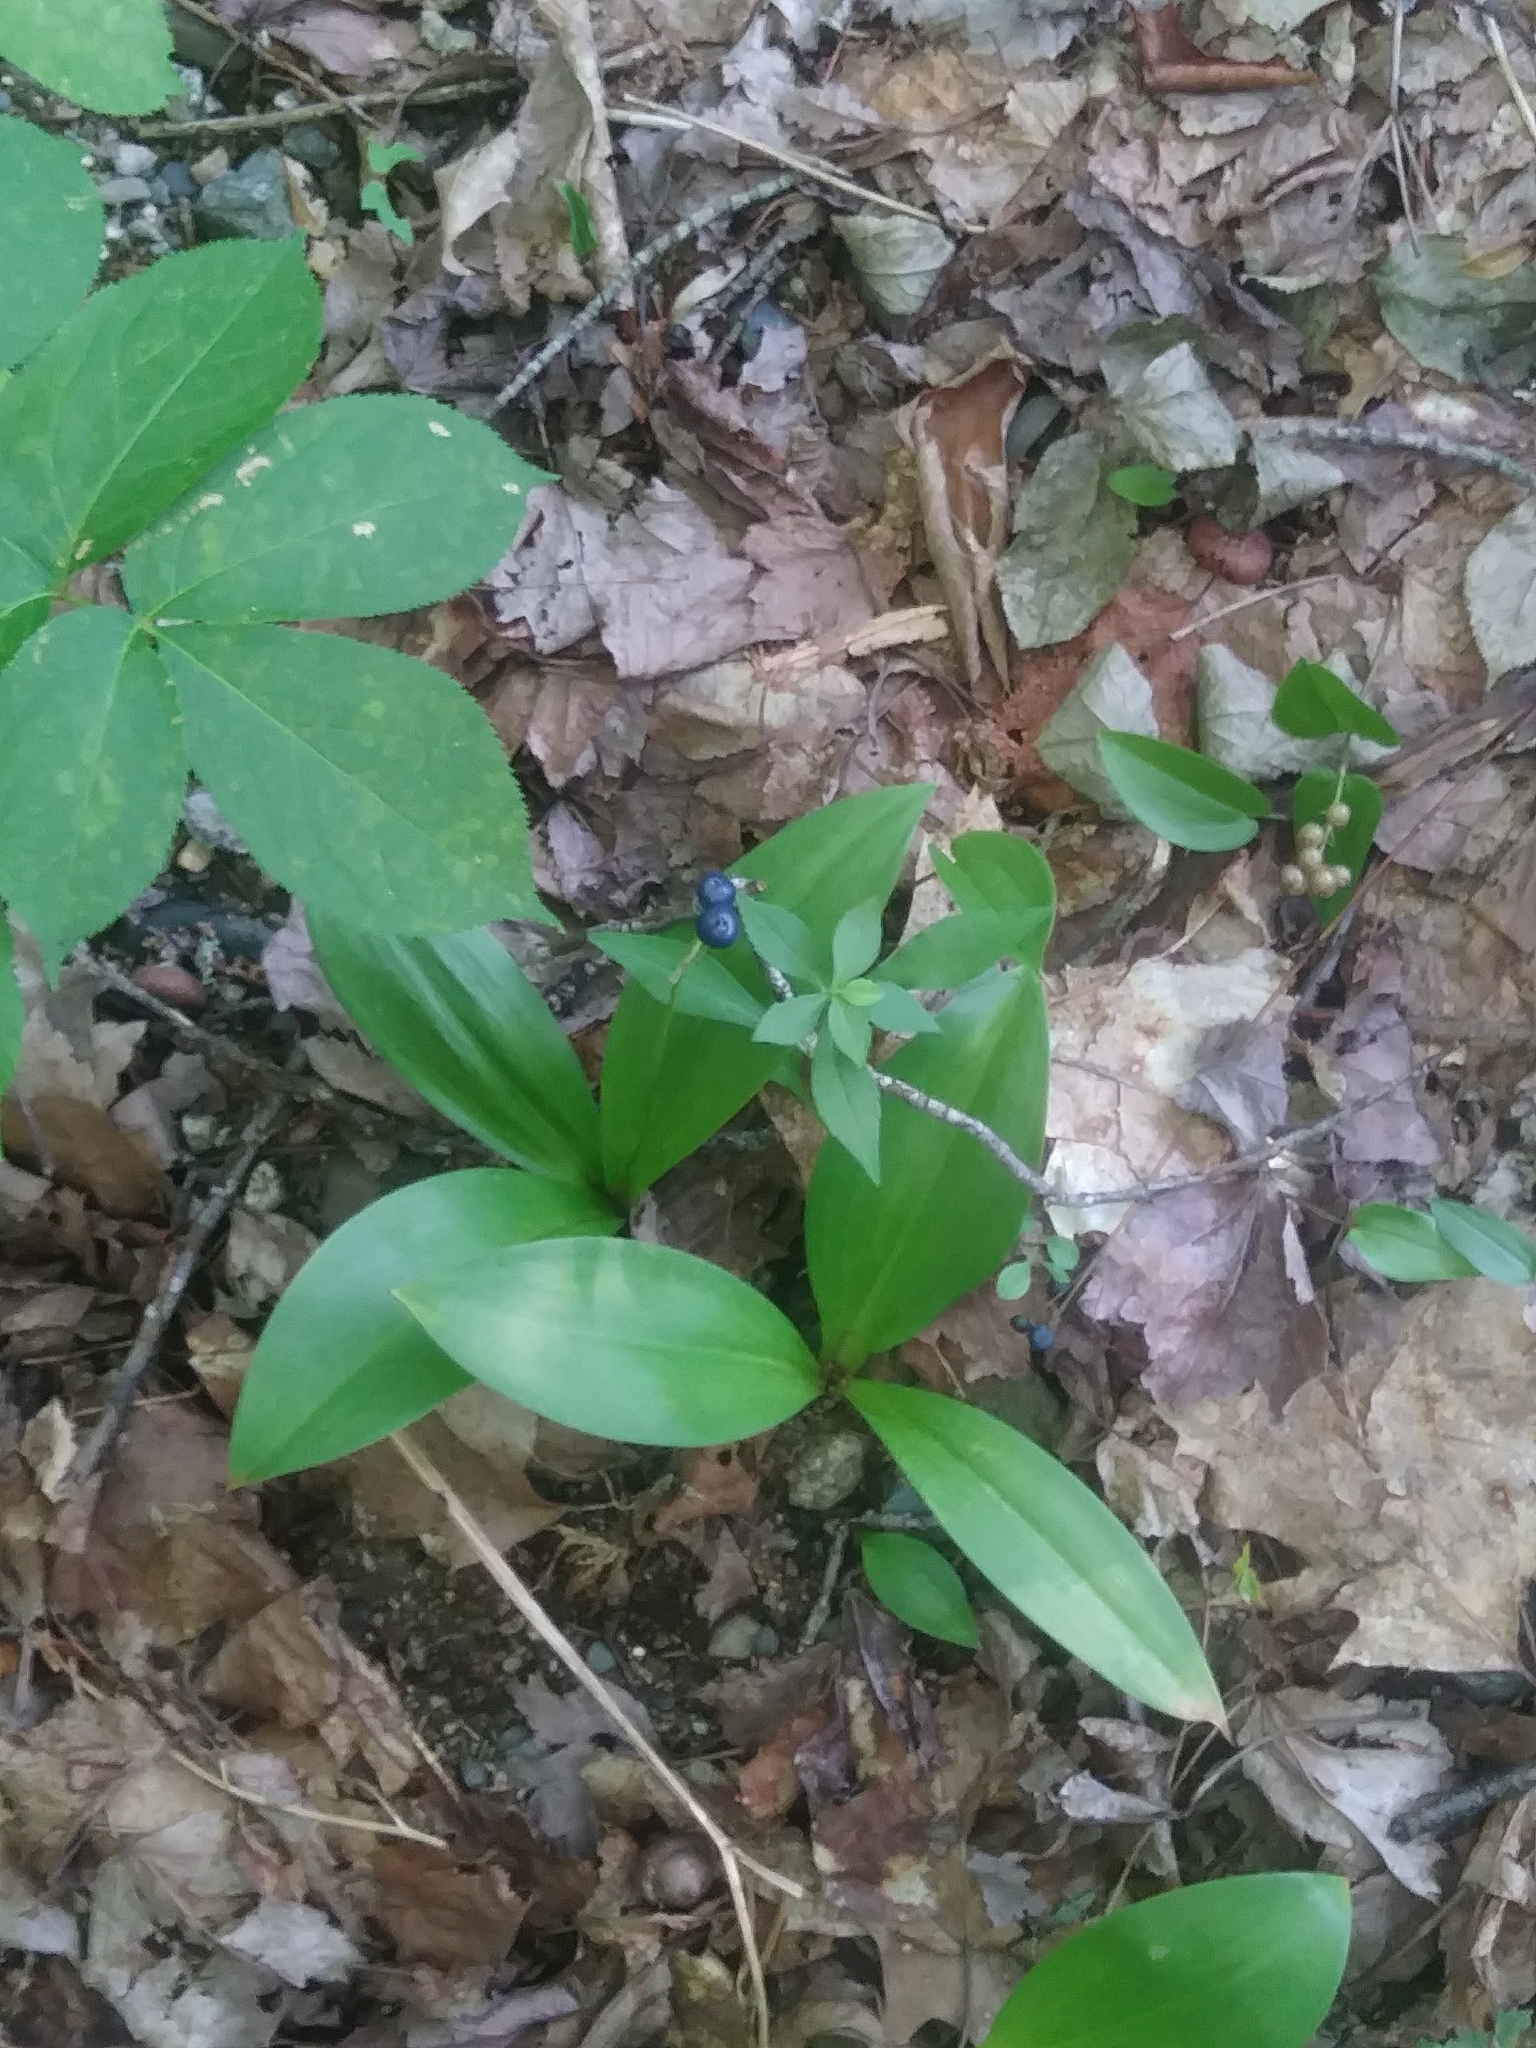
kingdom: Plantae
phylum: Tracheophyta
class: Liliopsida
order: Liliales
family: Liliaceae
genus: Clintonia
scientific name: Clintonia borealis
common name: Yellow clintonia
